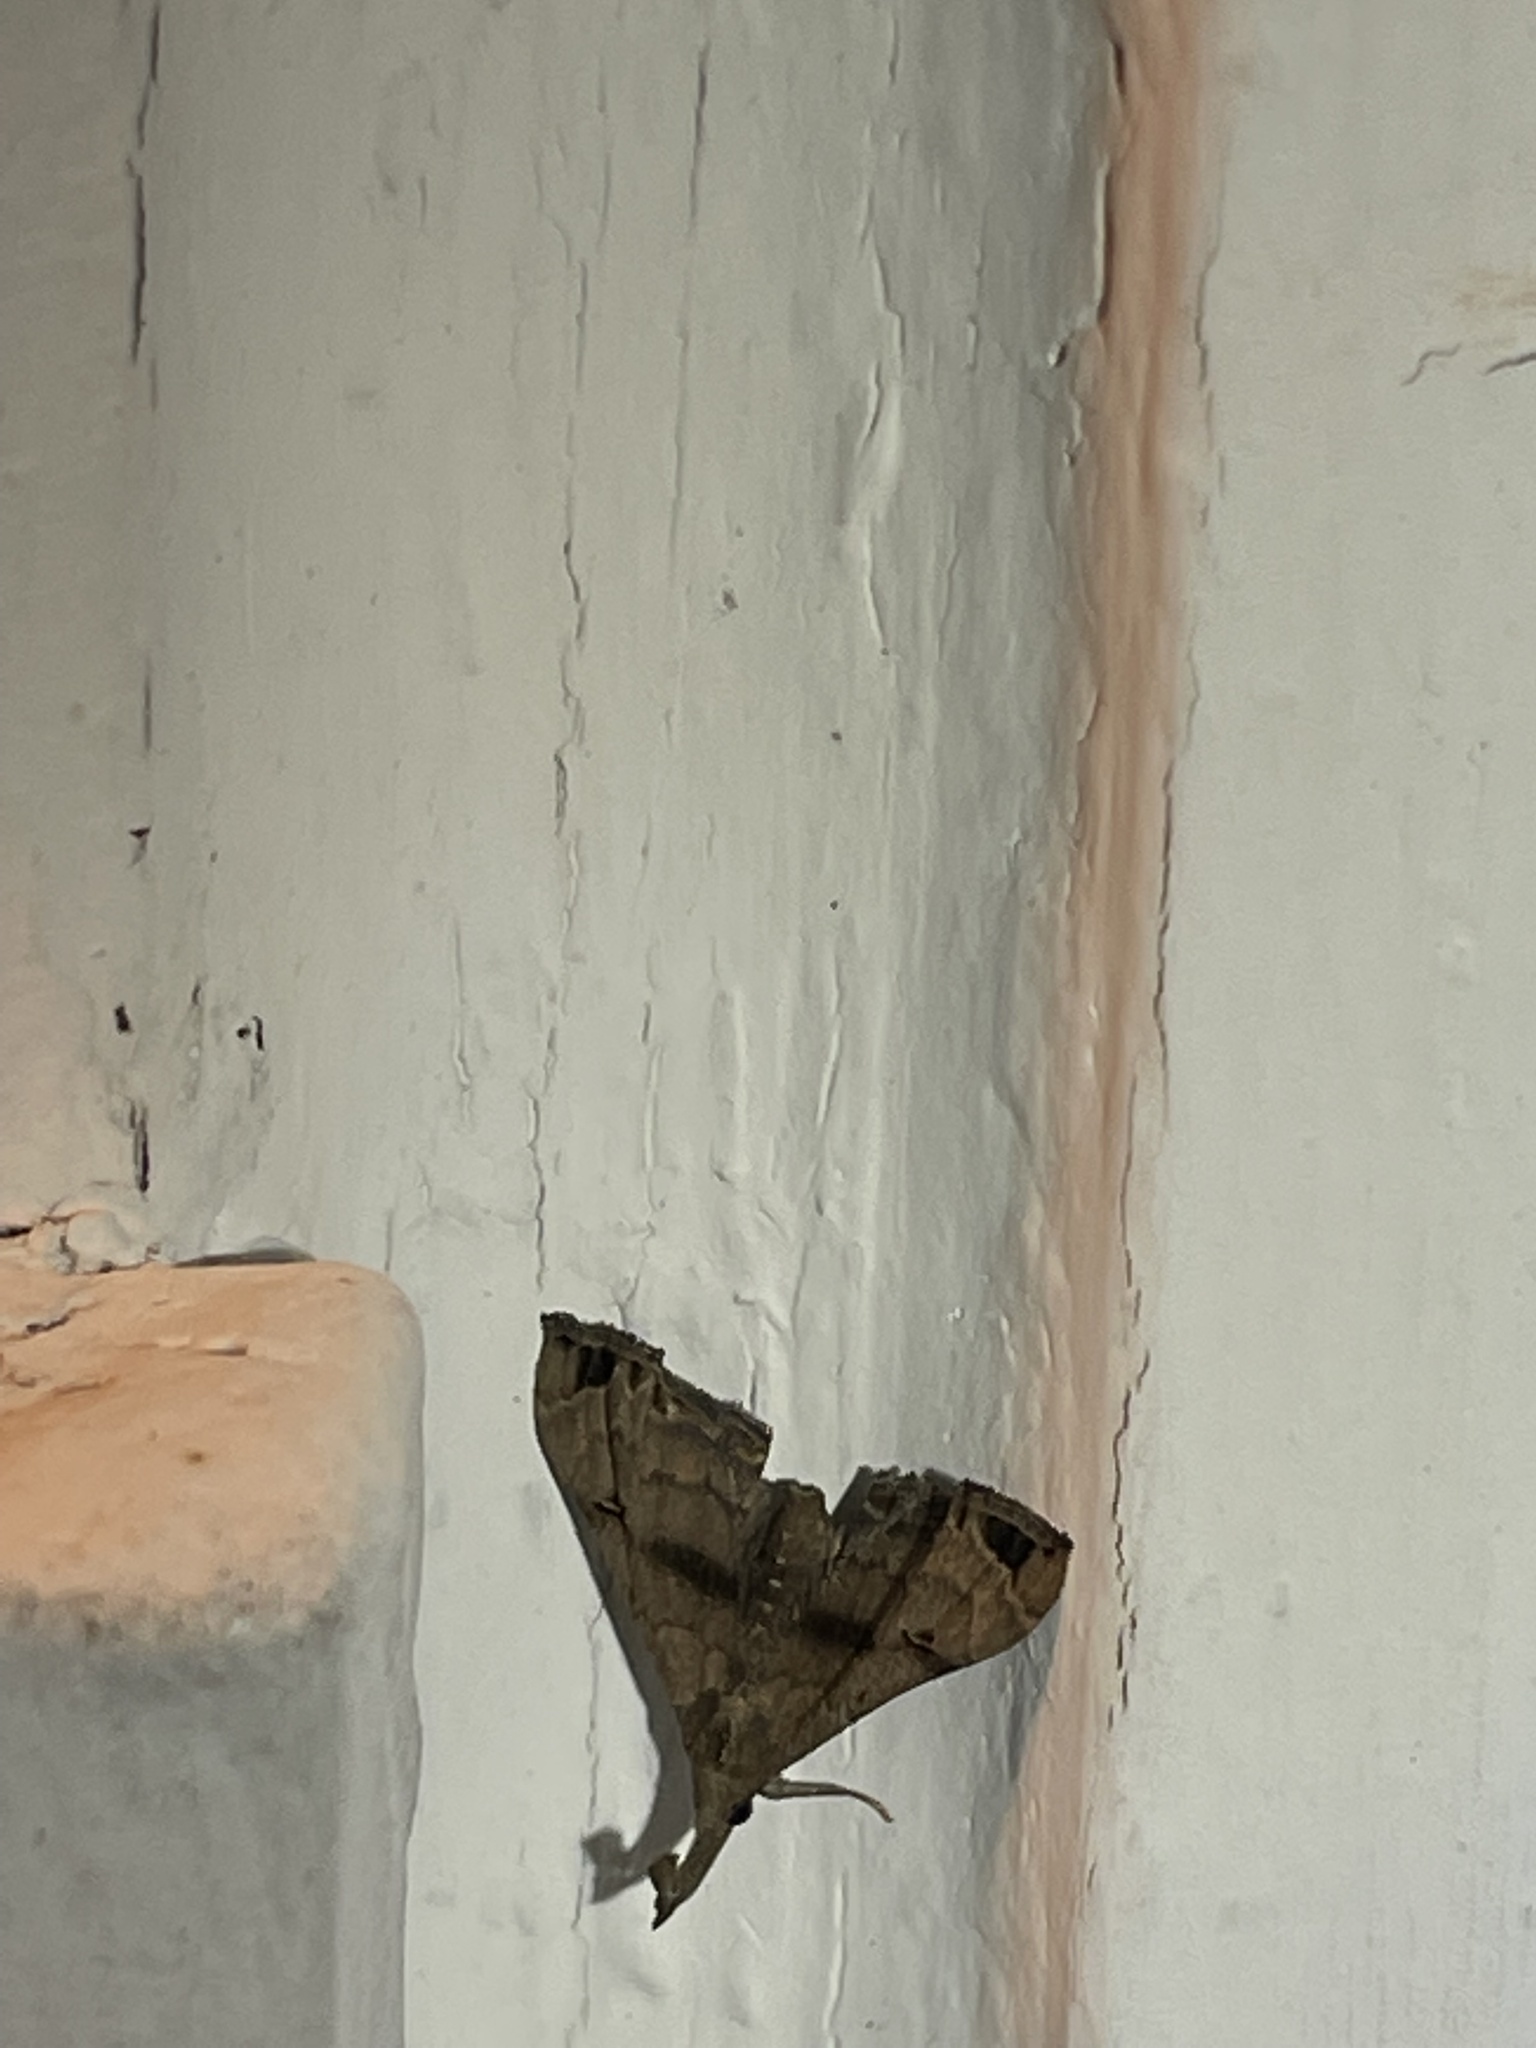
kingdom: Animalia
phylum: Arthropoda
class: Insecta
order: Lepidoptera
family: Erebidae
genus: Palthis
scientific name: Palthis asopialis
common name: Faint-spotted palthis moth
